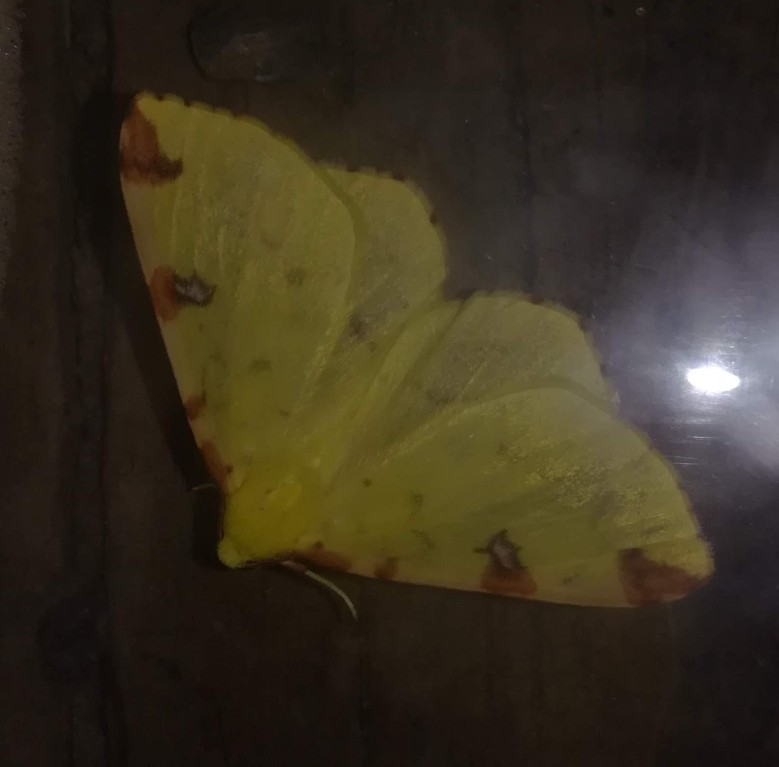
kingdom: Animalia
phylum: Arthropoda
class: Insecta
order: Lepidoptera
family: Geometridae
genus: Opisthograptis
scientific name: Opisthograptis luteolata
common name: Brimstone moth
